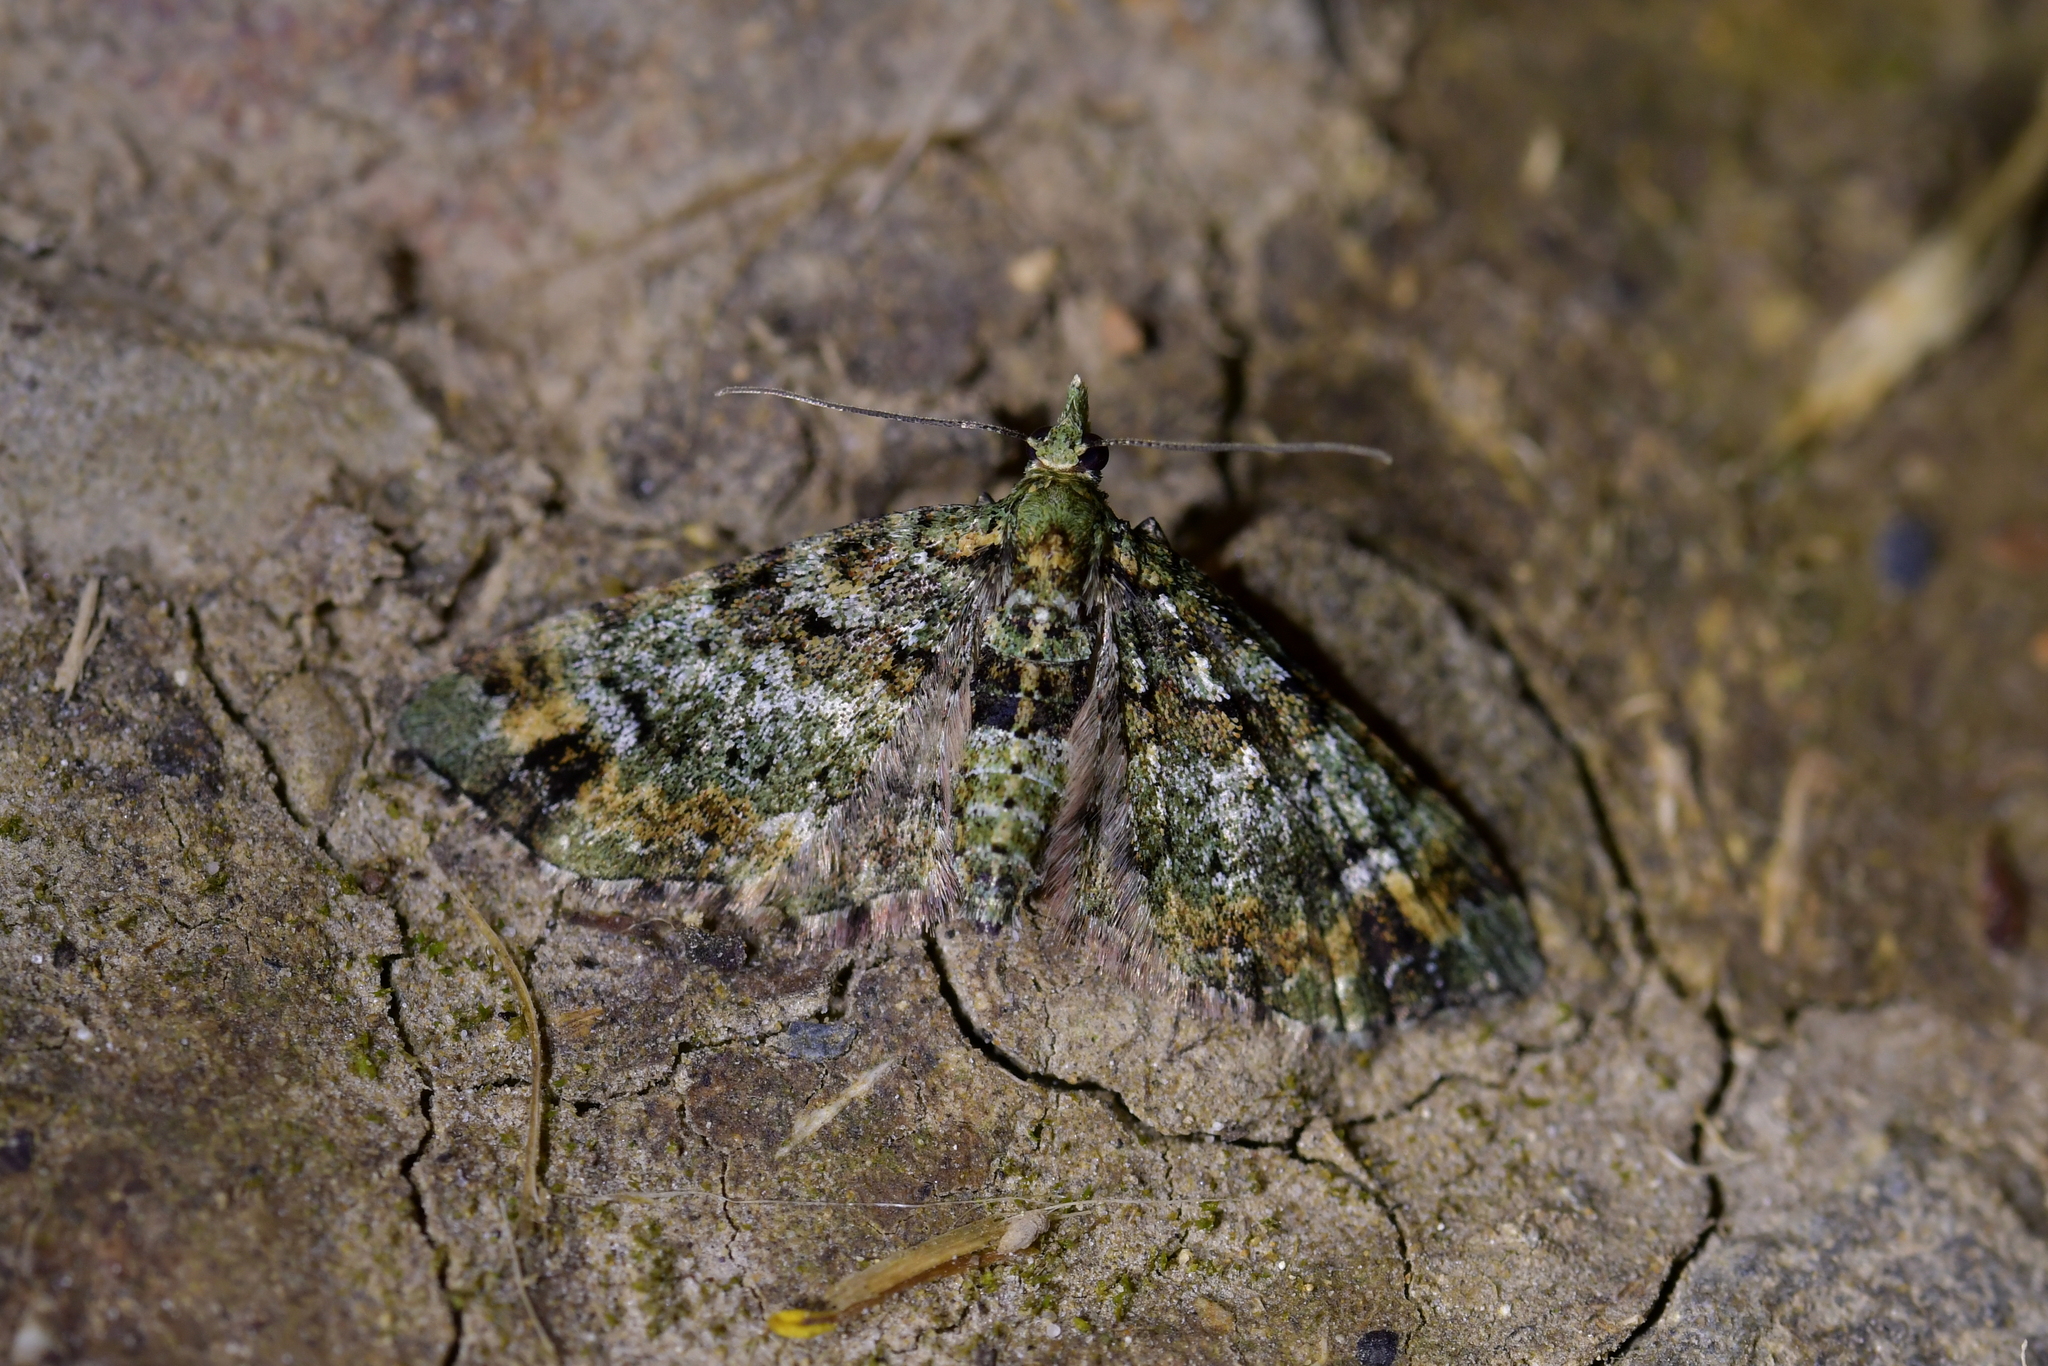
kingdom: Animalia
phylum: Arthropoda
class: Insecta
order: Lepidoptera
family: Geometridae
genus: Pasiphila
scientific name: Pasiphila bilineolata
